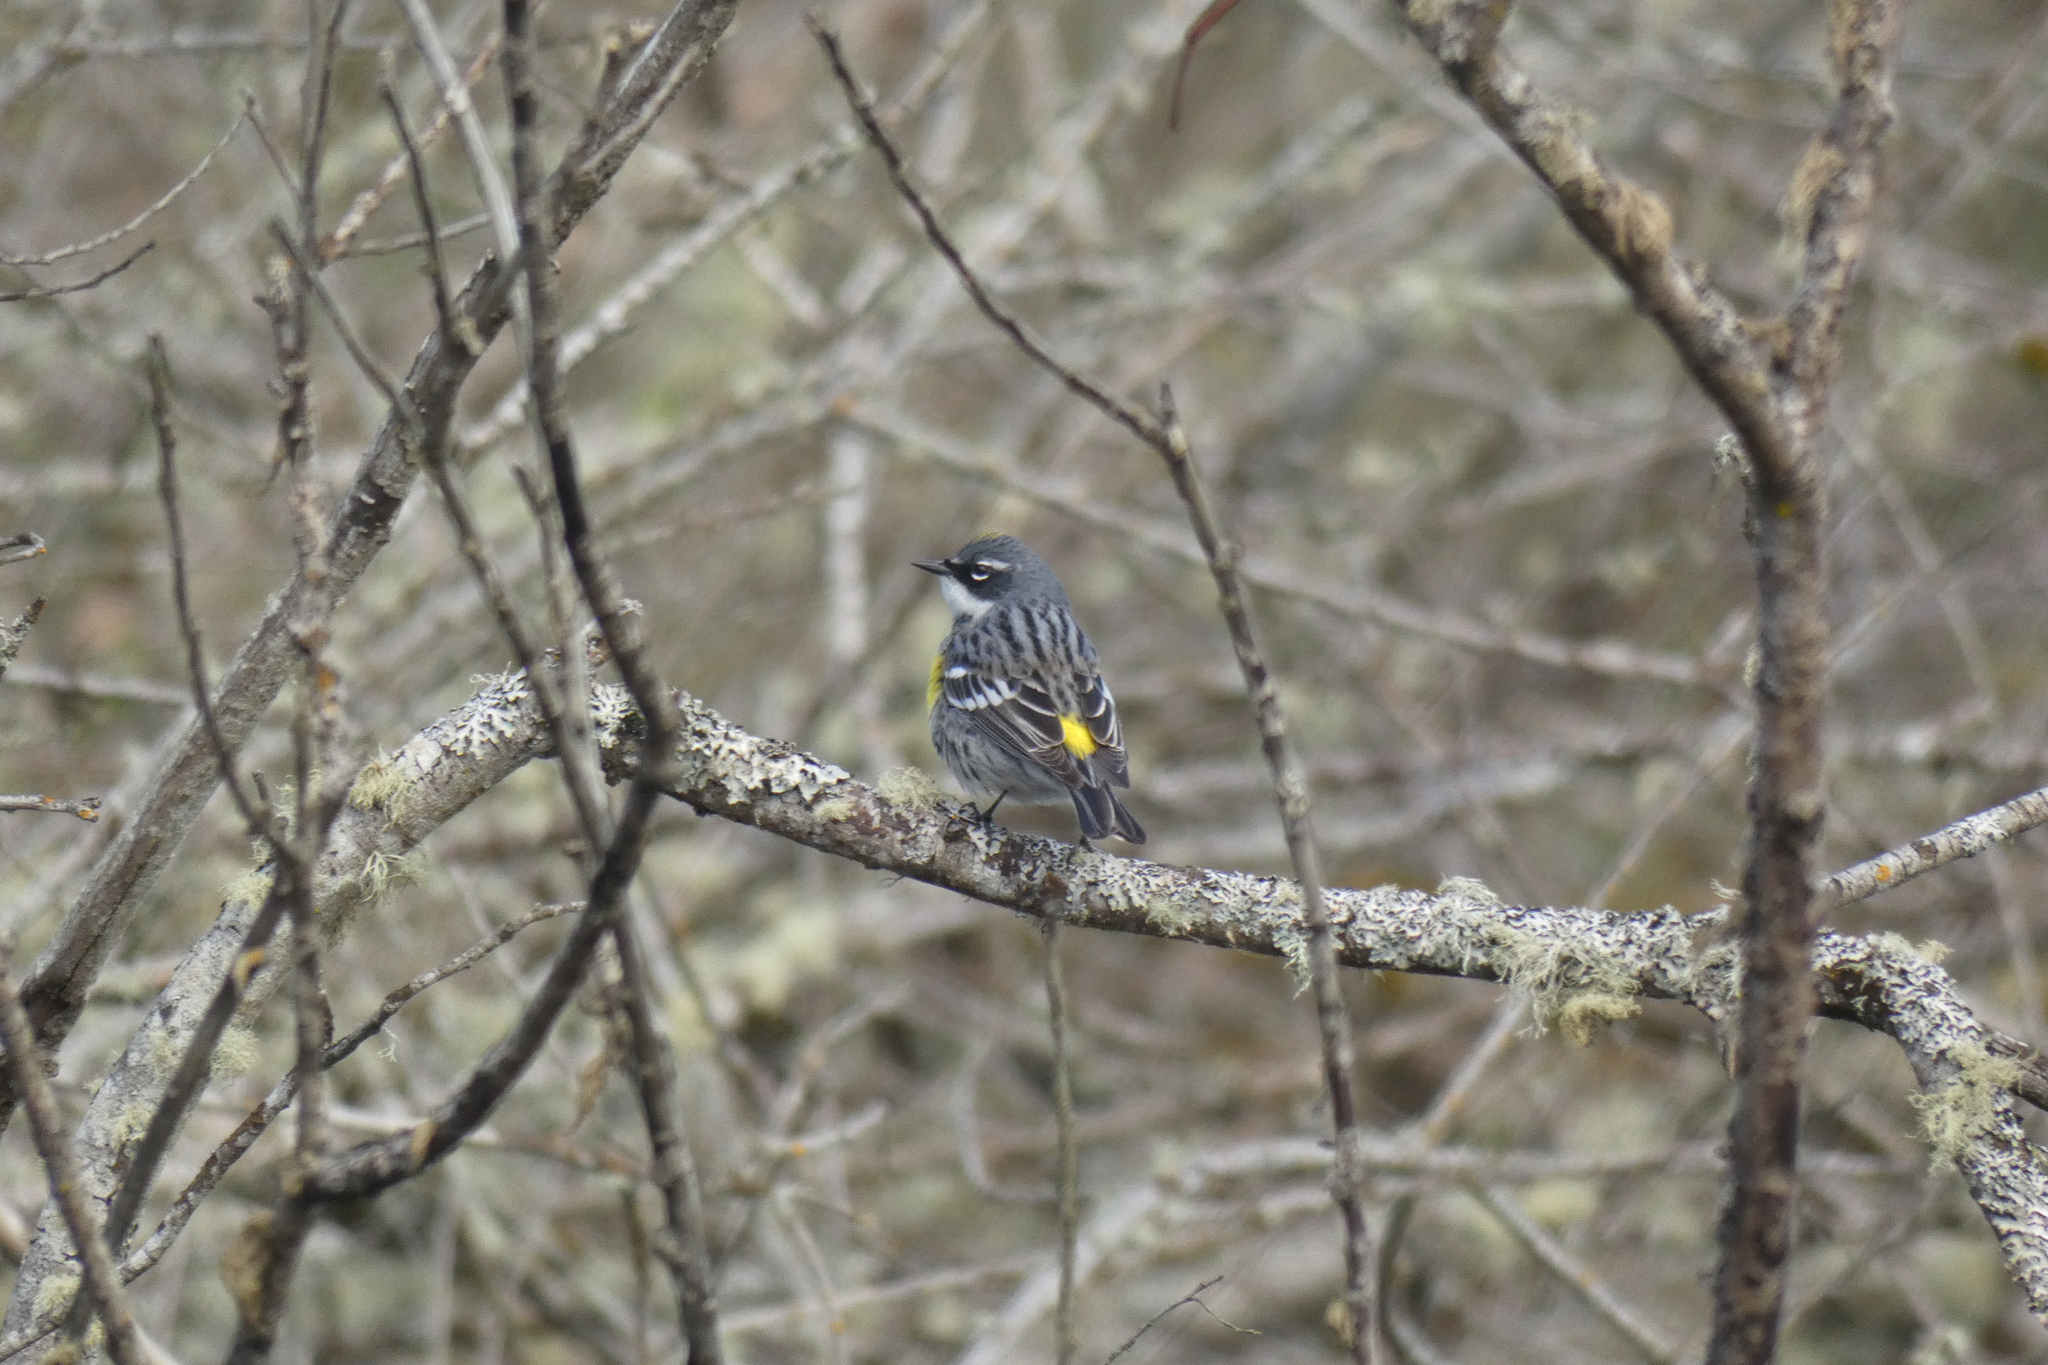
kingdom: Animalia
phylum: Chordata
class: Aves
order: Passeriformes
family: Parulidae
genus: Setophaga
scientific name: Setophaga coronata
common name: Myrtle warbler
